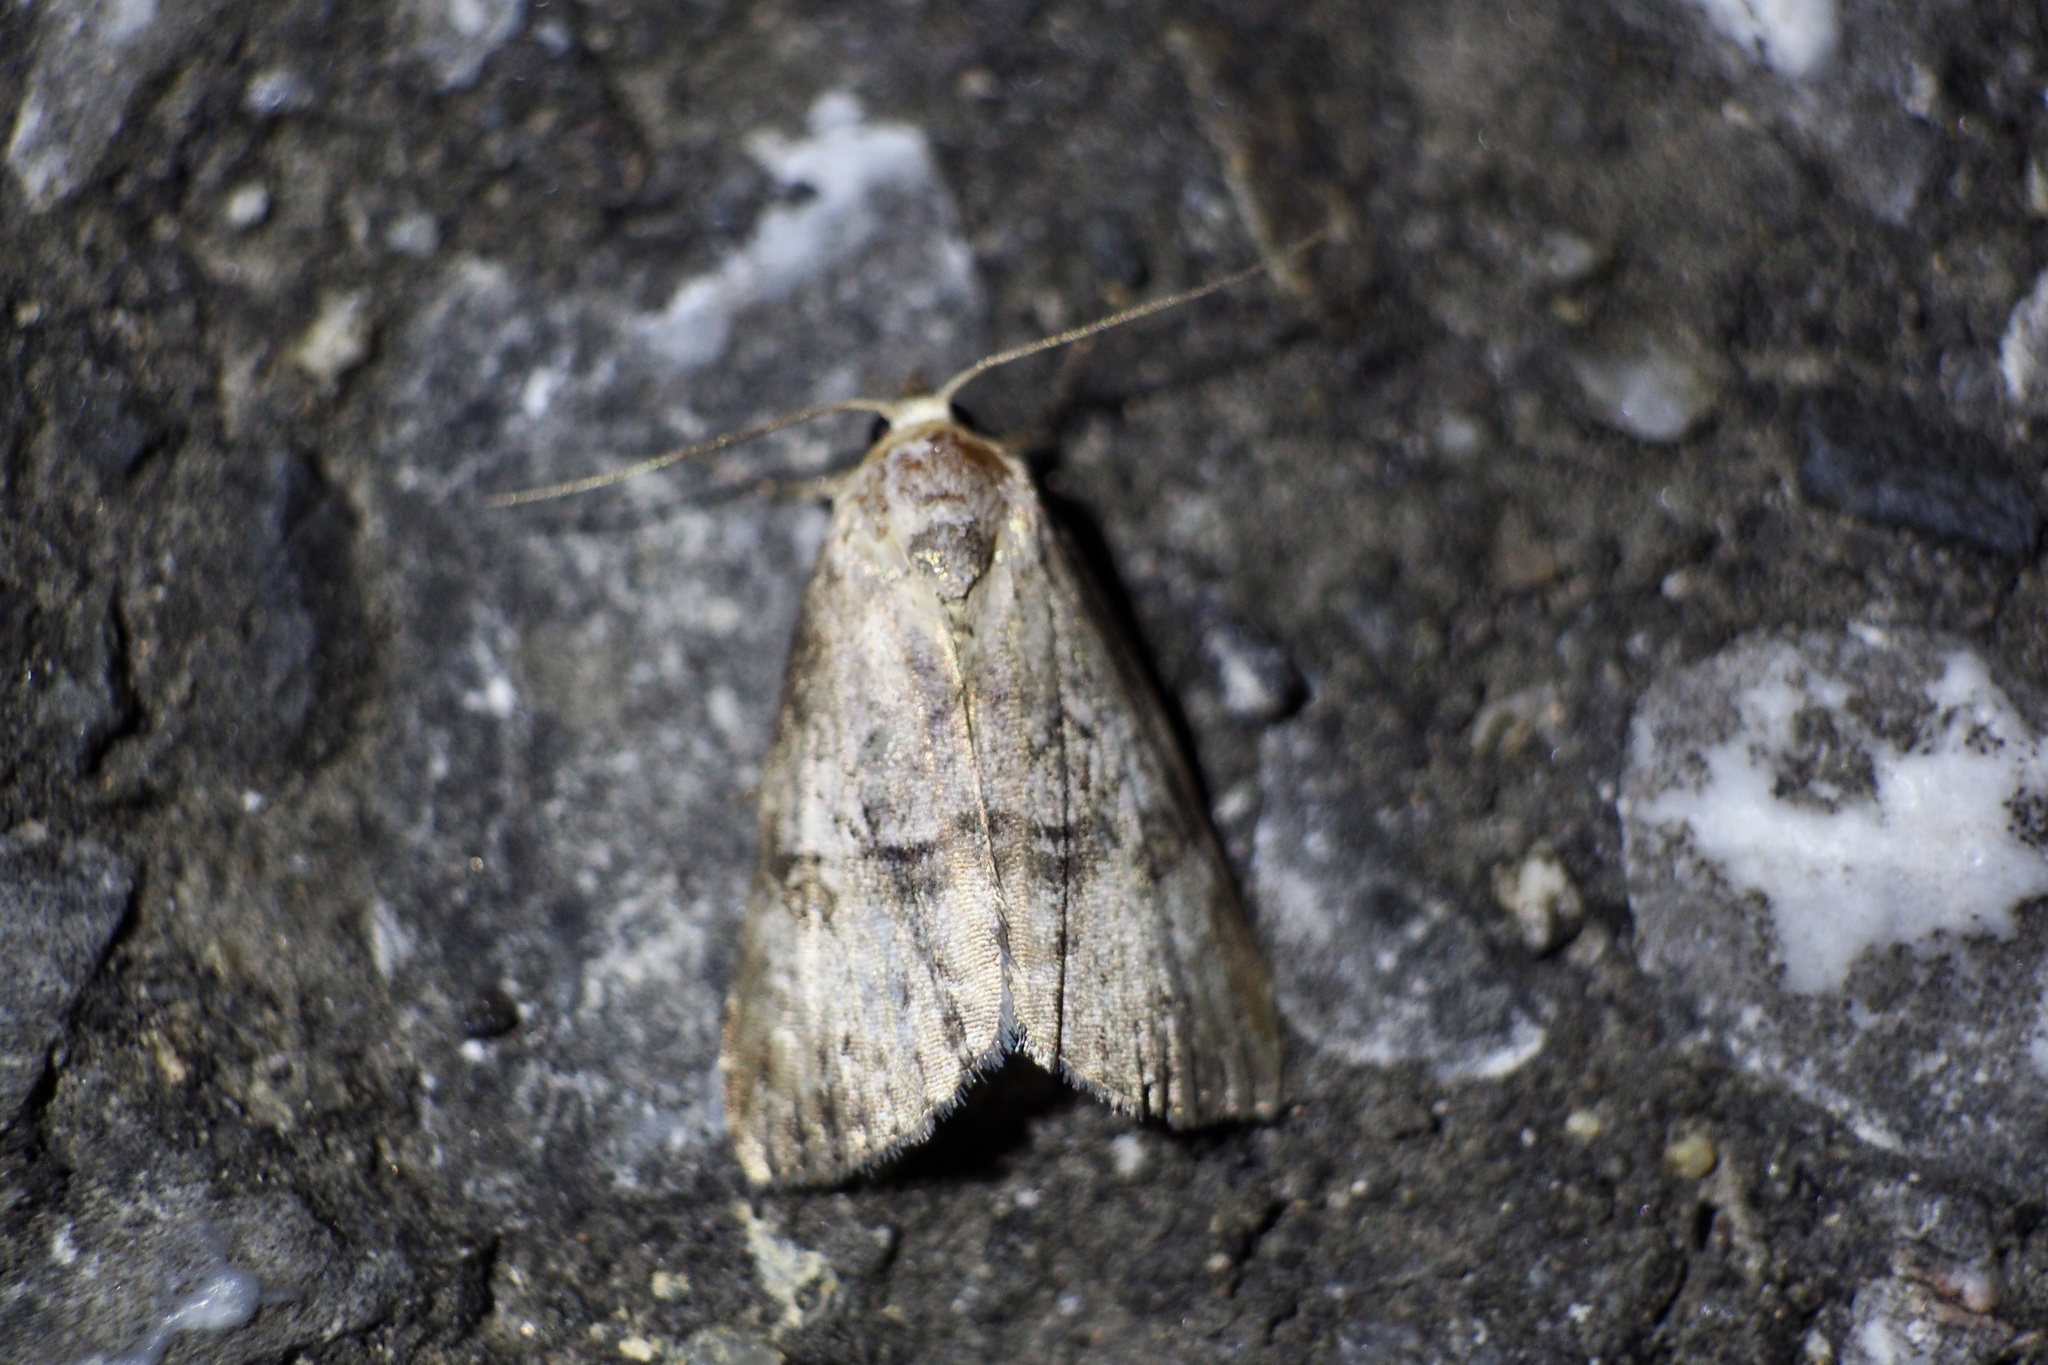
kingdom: Animalia
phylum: Arthropoda
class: Insecta
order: Lepidoptera
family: Erebidae
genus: Chorsia
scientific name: Chorsia mollicula
